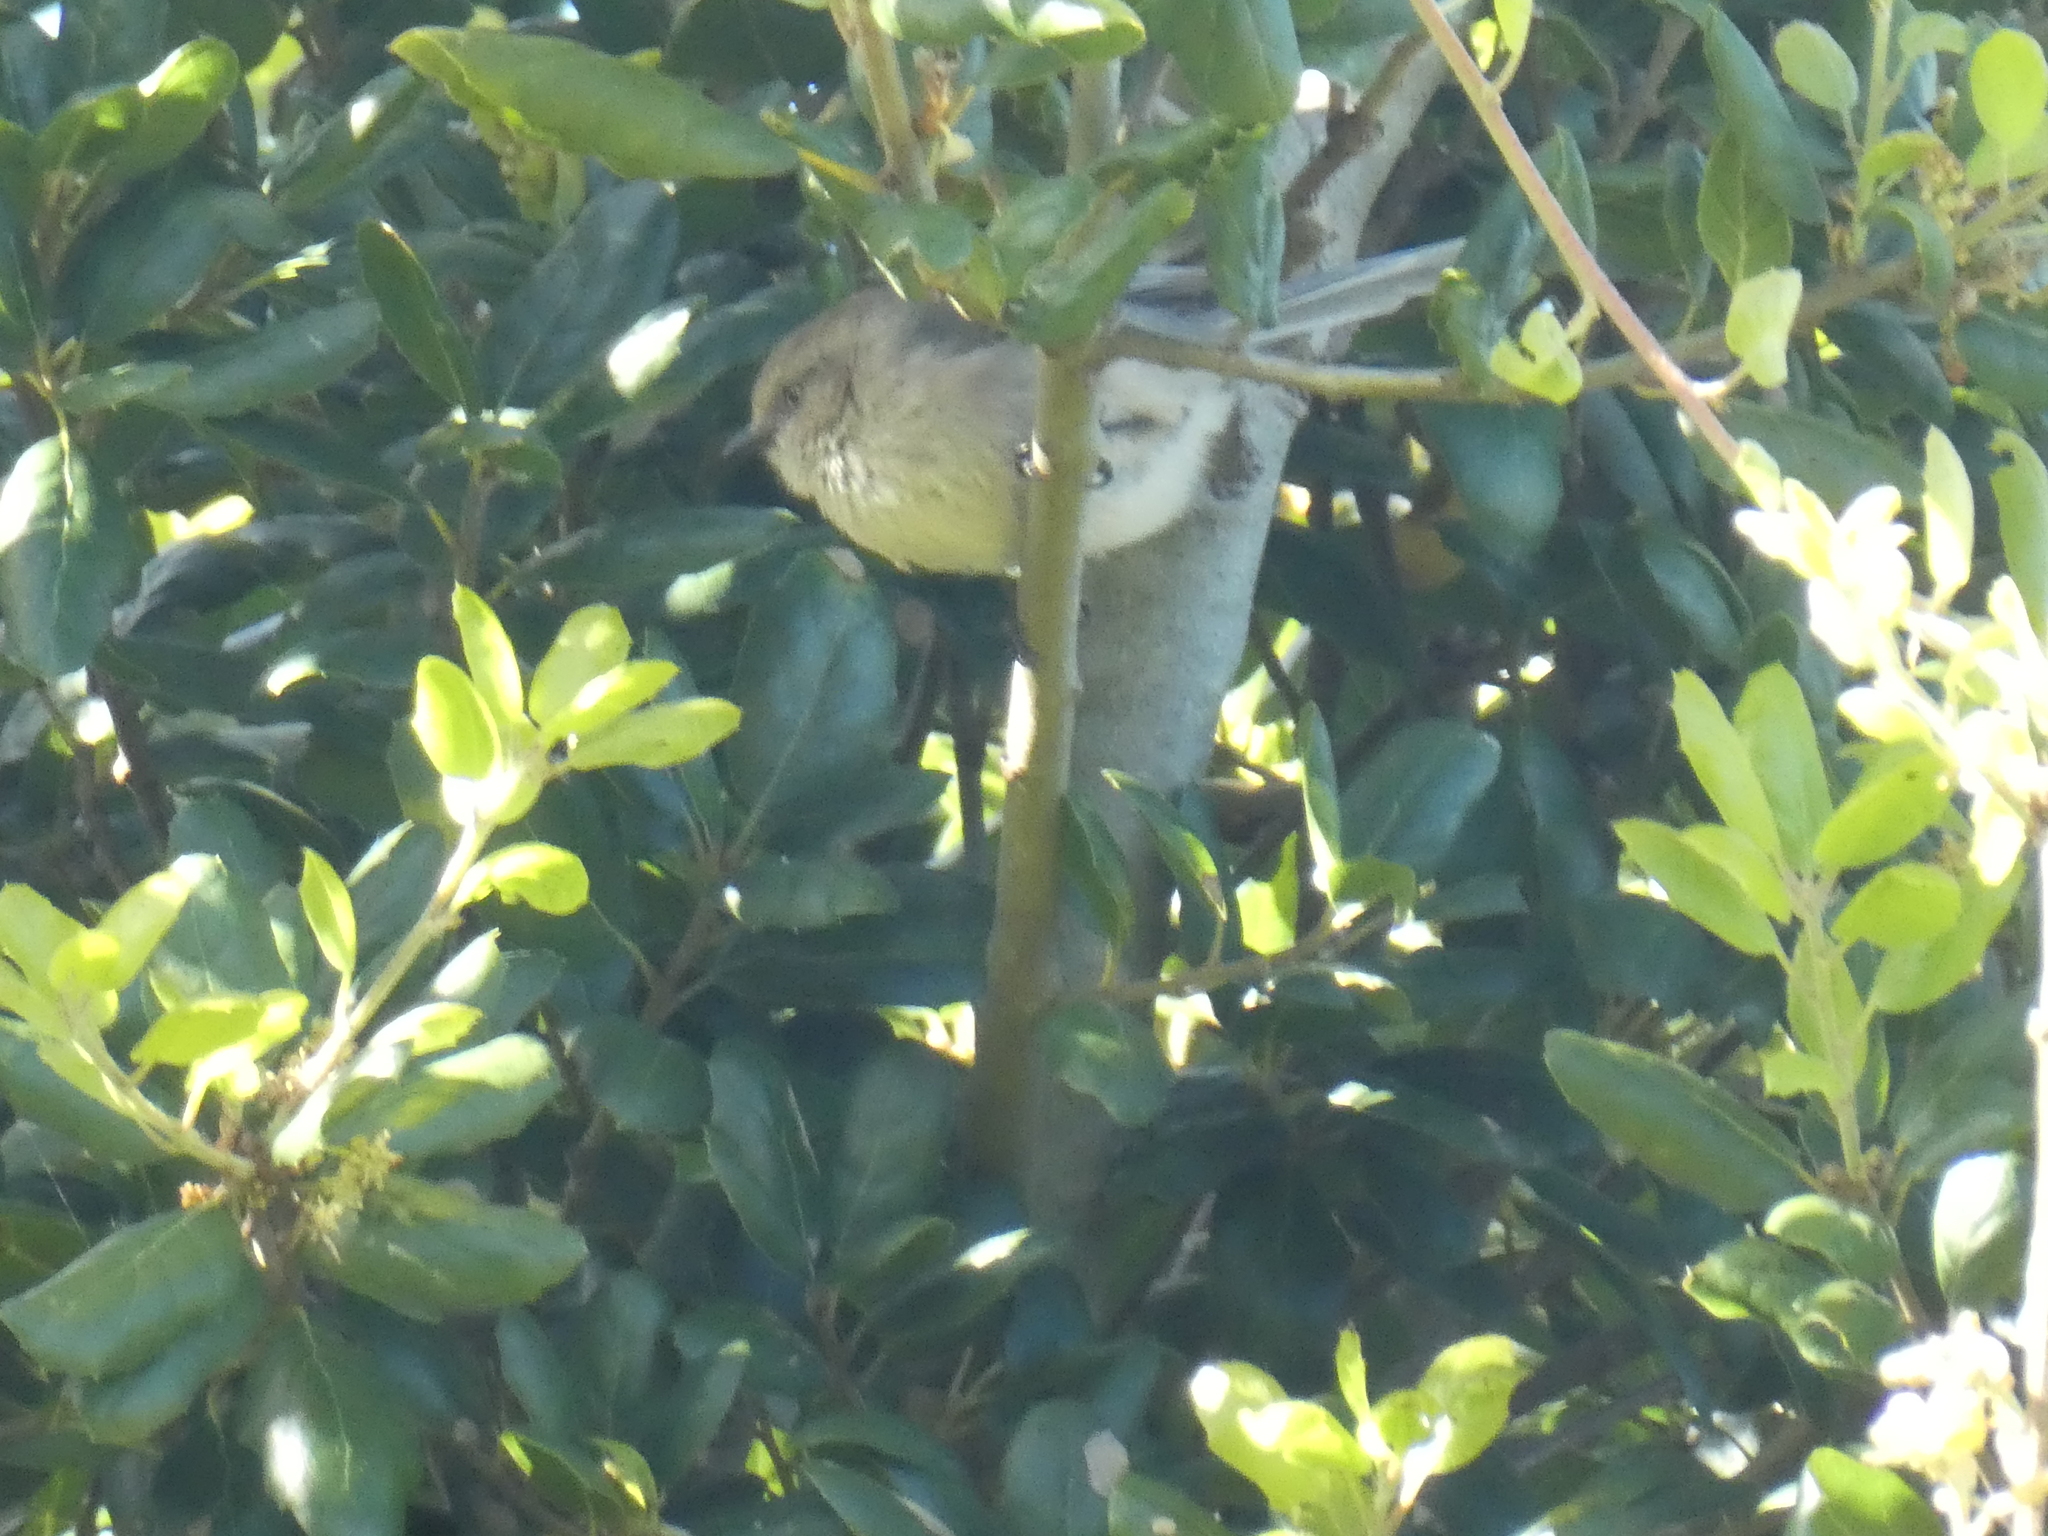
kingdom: Animalia
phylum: Chordata
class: Aves
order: Passeriformes
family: Aegithalidae
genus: Psaltriparus
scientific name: Psaltriparus minimus
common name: American bushtit
